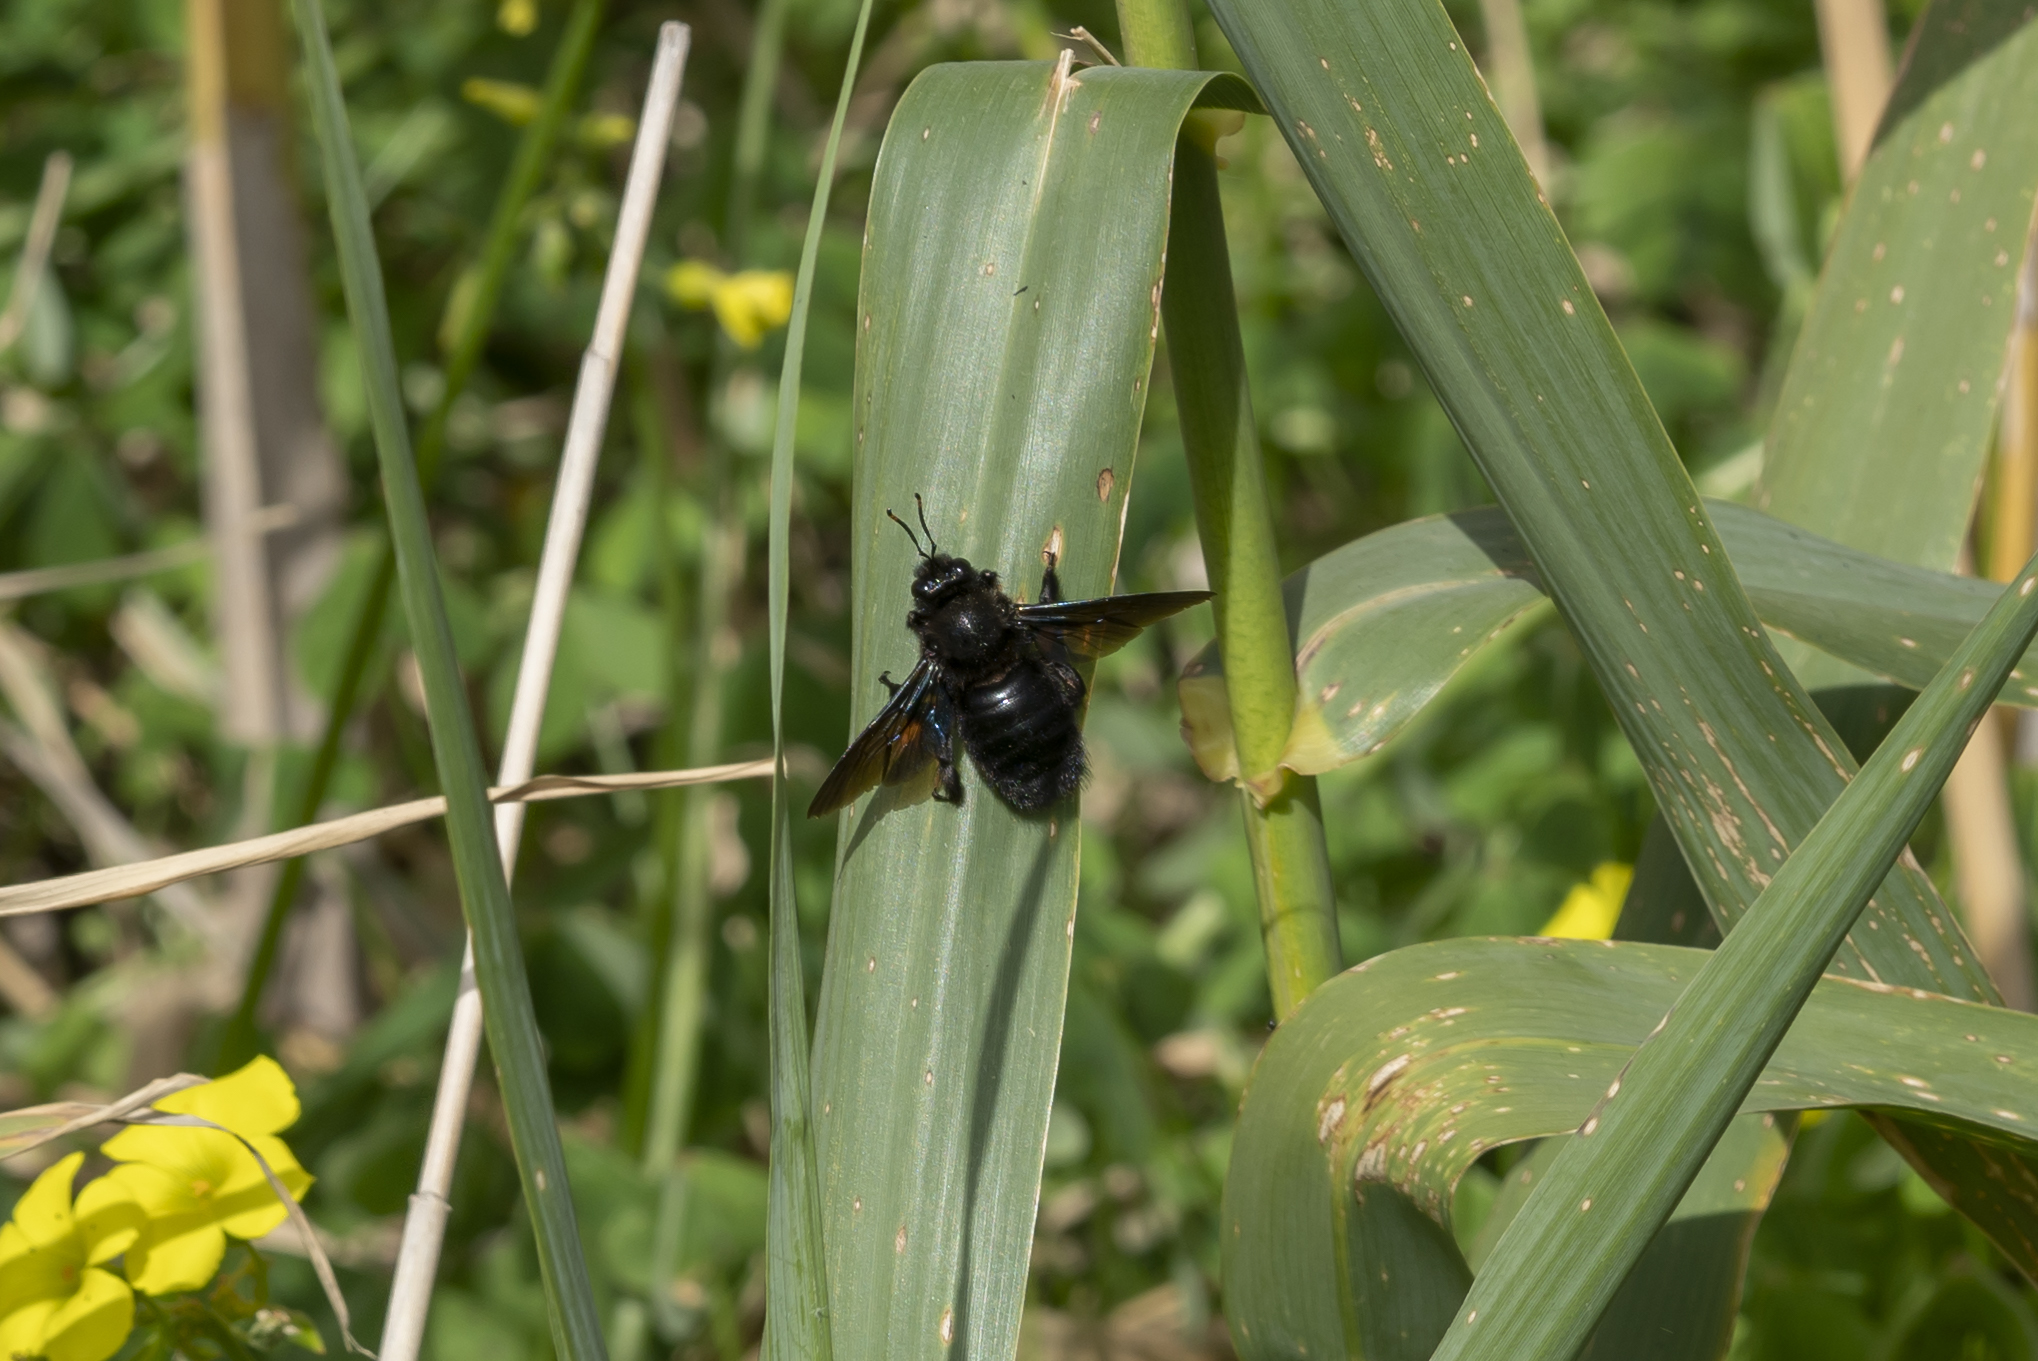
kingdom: Animalia
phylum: Arthropoda
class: Insecta
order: Hymenoptera
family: Apidae
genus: Xylocopa
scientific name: Xylocopa violacea
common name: Violet carpenter bee
